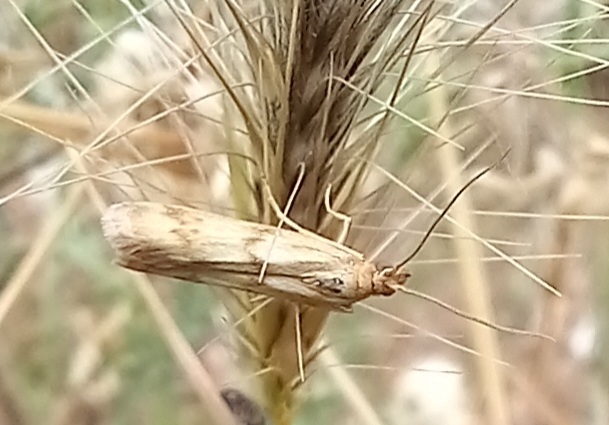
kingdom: Animalia
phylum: Arthropoda
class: Insecta
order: Lepidoptera
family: Pyralidae
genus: Homoeosoma
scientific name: Homoeosoma sinuella
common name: Twin-barred knot-horn
